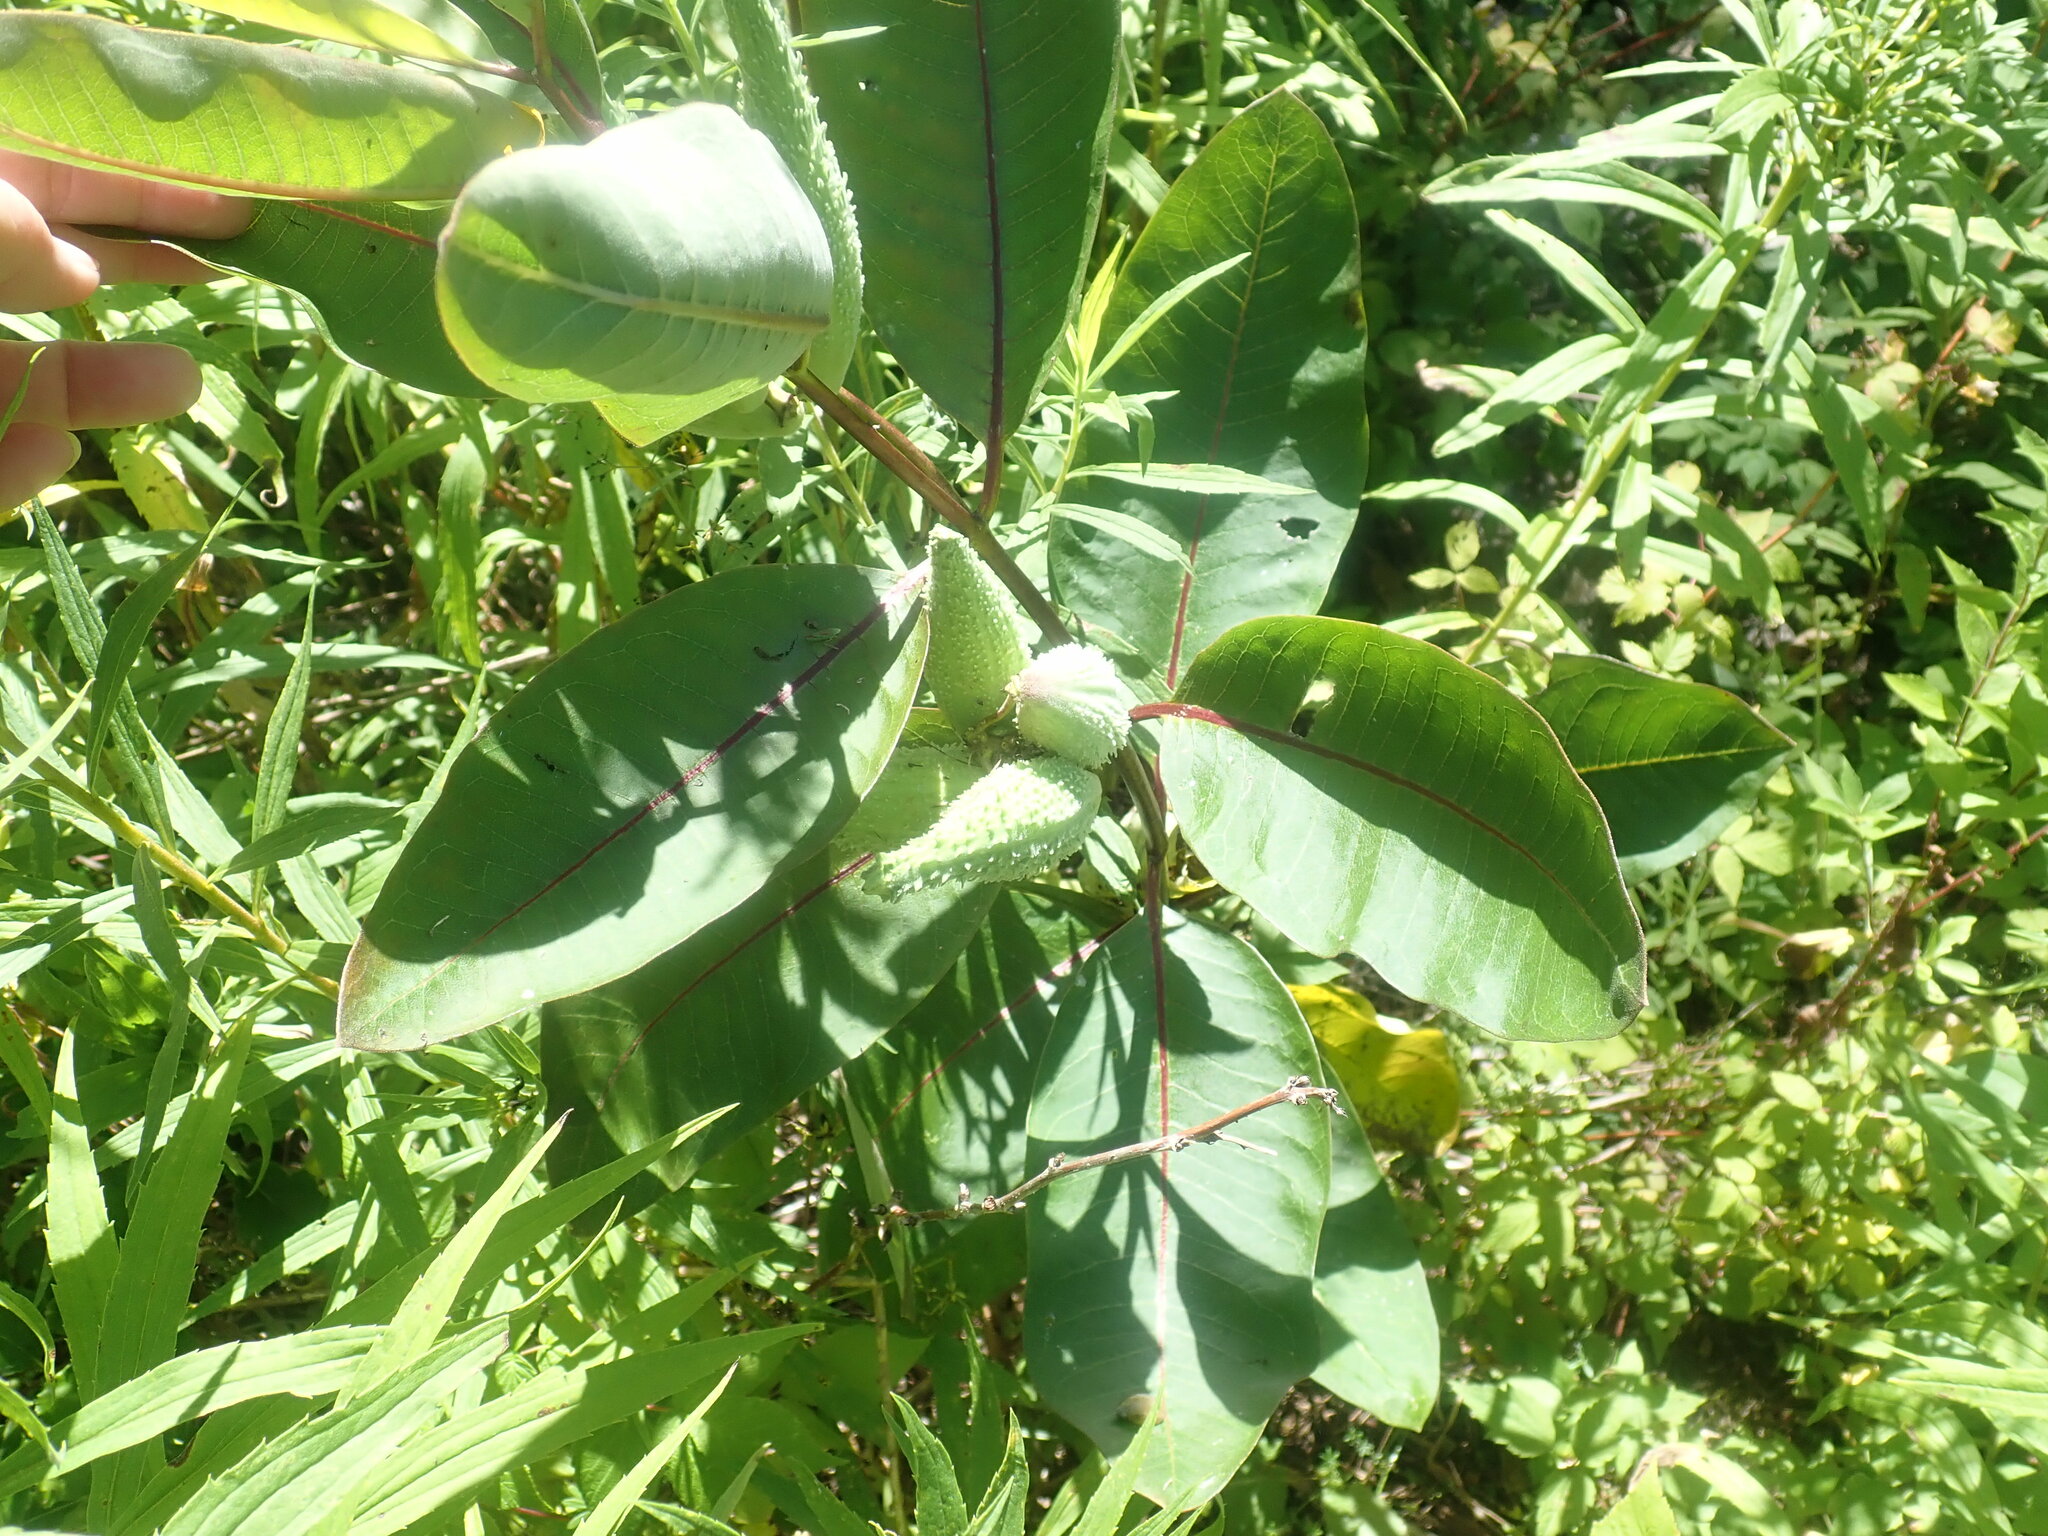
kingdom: Plantae
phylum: Tracheophyta
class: Magnoliopsida
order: Gentianales
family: Apocynaceae
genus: Asclepias
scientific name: Asclepias syriaca
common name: Common milkweed
